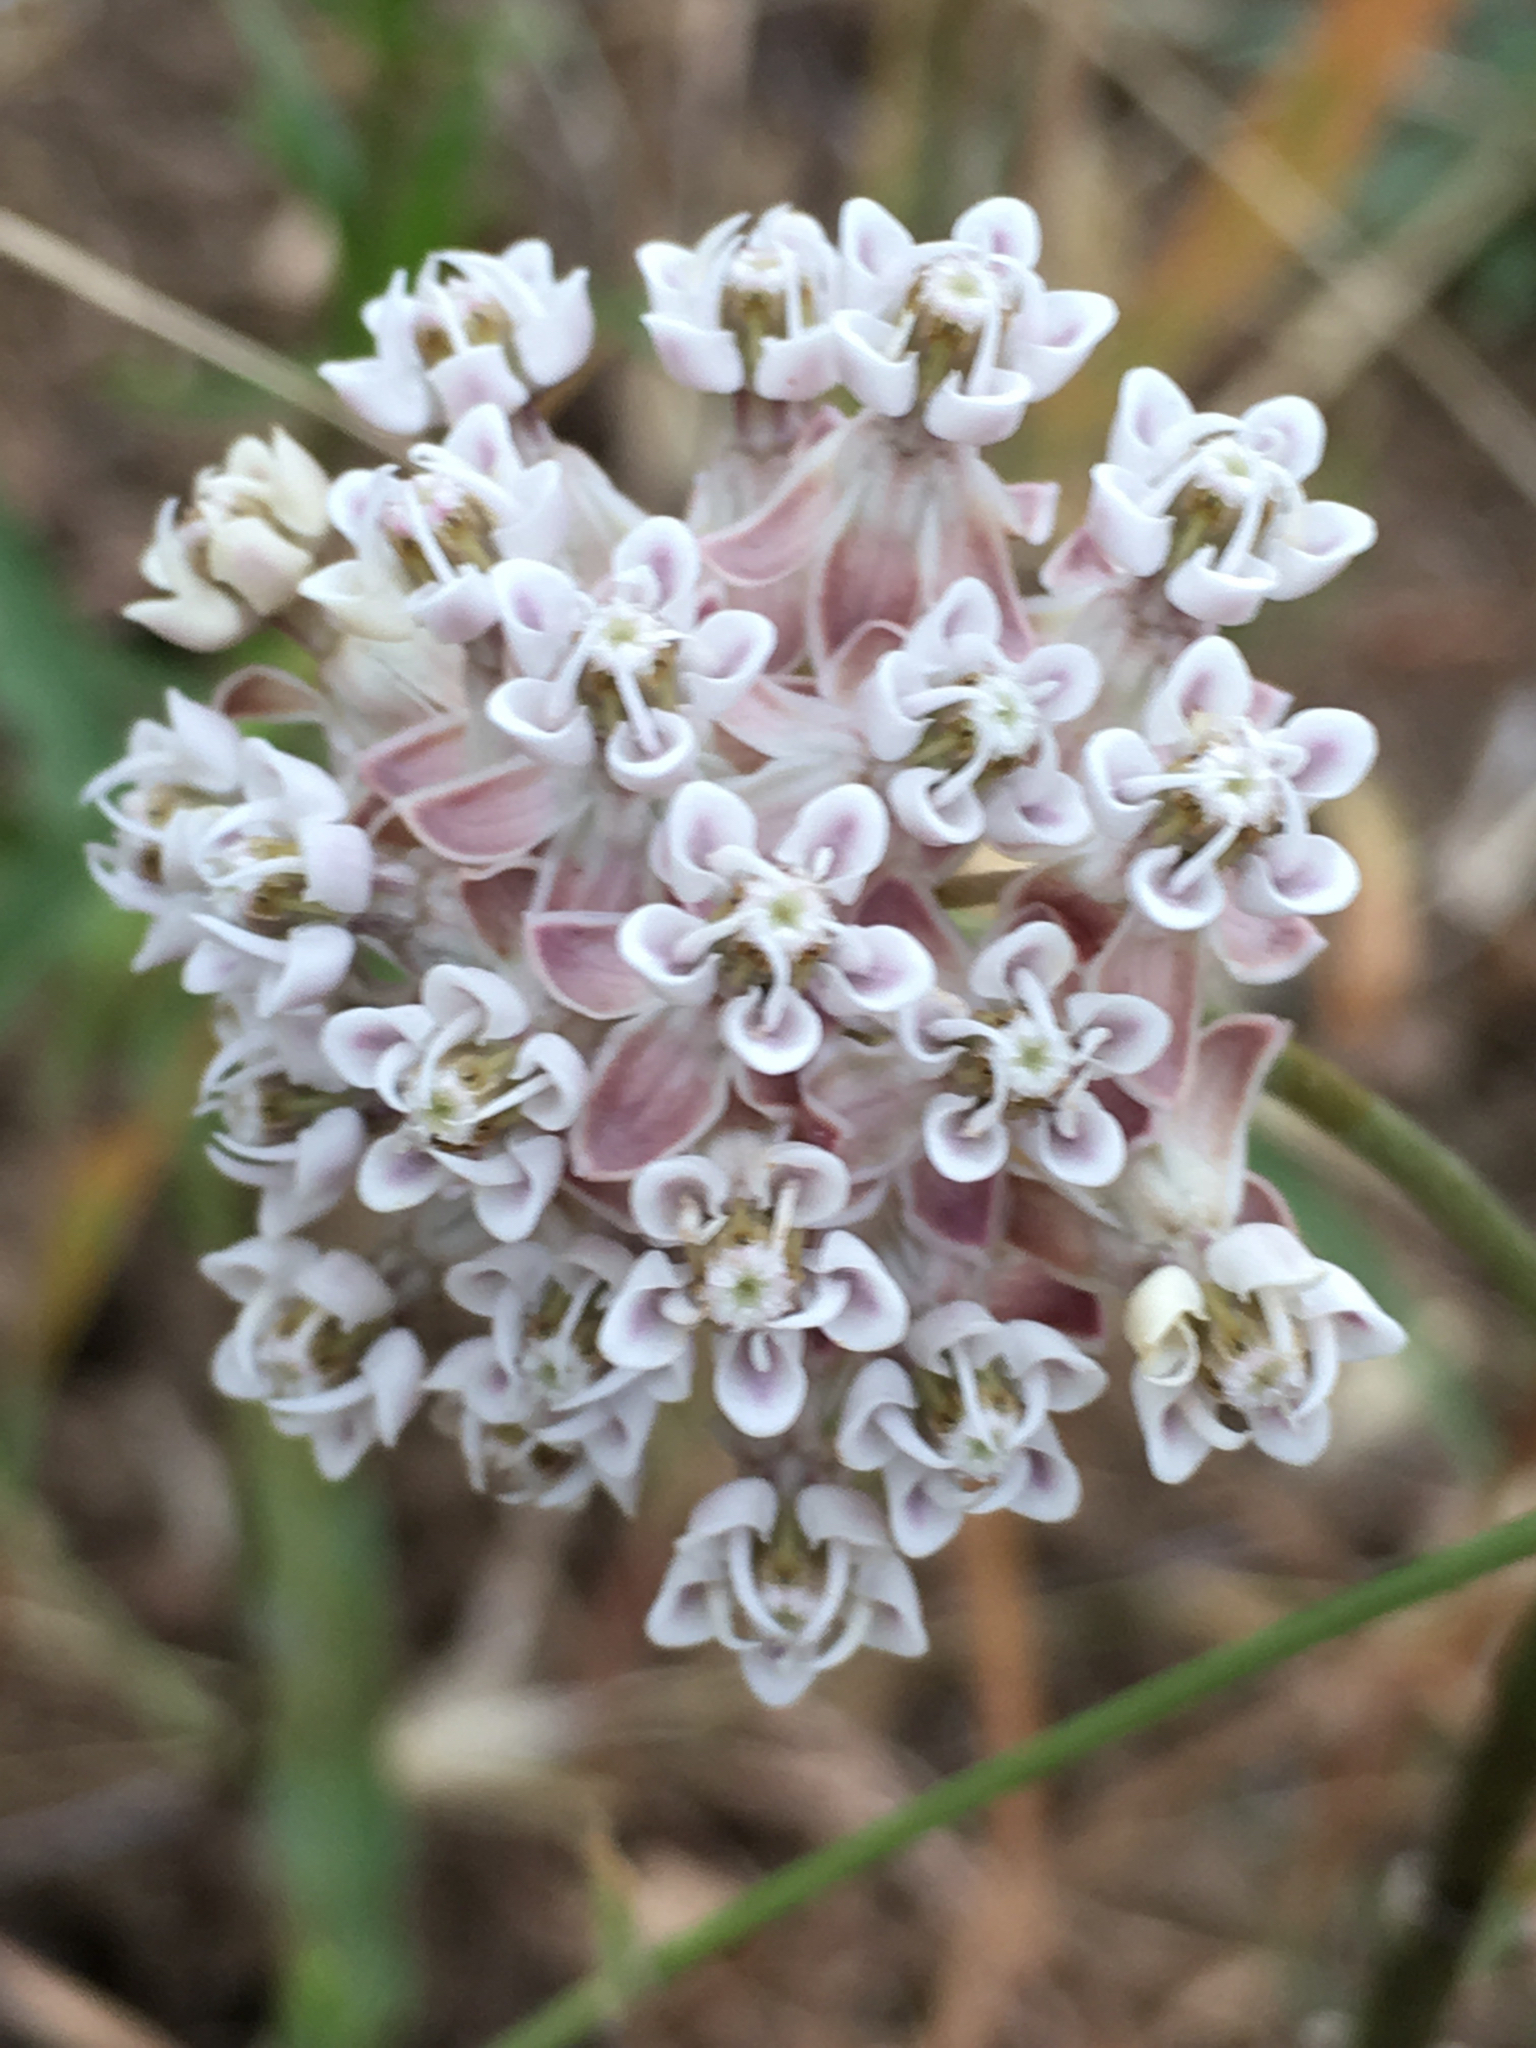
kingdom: Plantae
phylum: Tracheophyta
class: Magnoliopsida
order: Gentianales
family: Apocynaceae
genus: Asclepias
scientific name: Asclepias fascicularis
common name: Mexican milkweed
